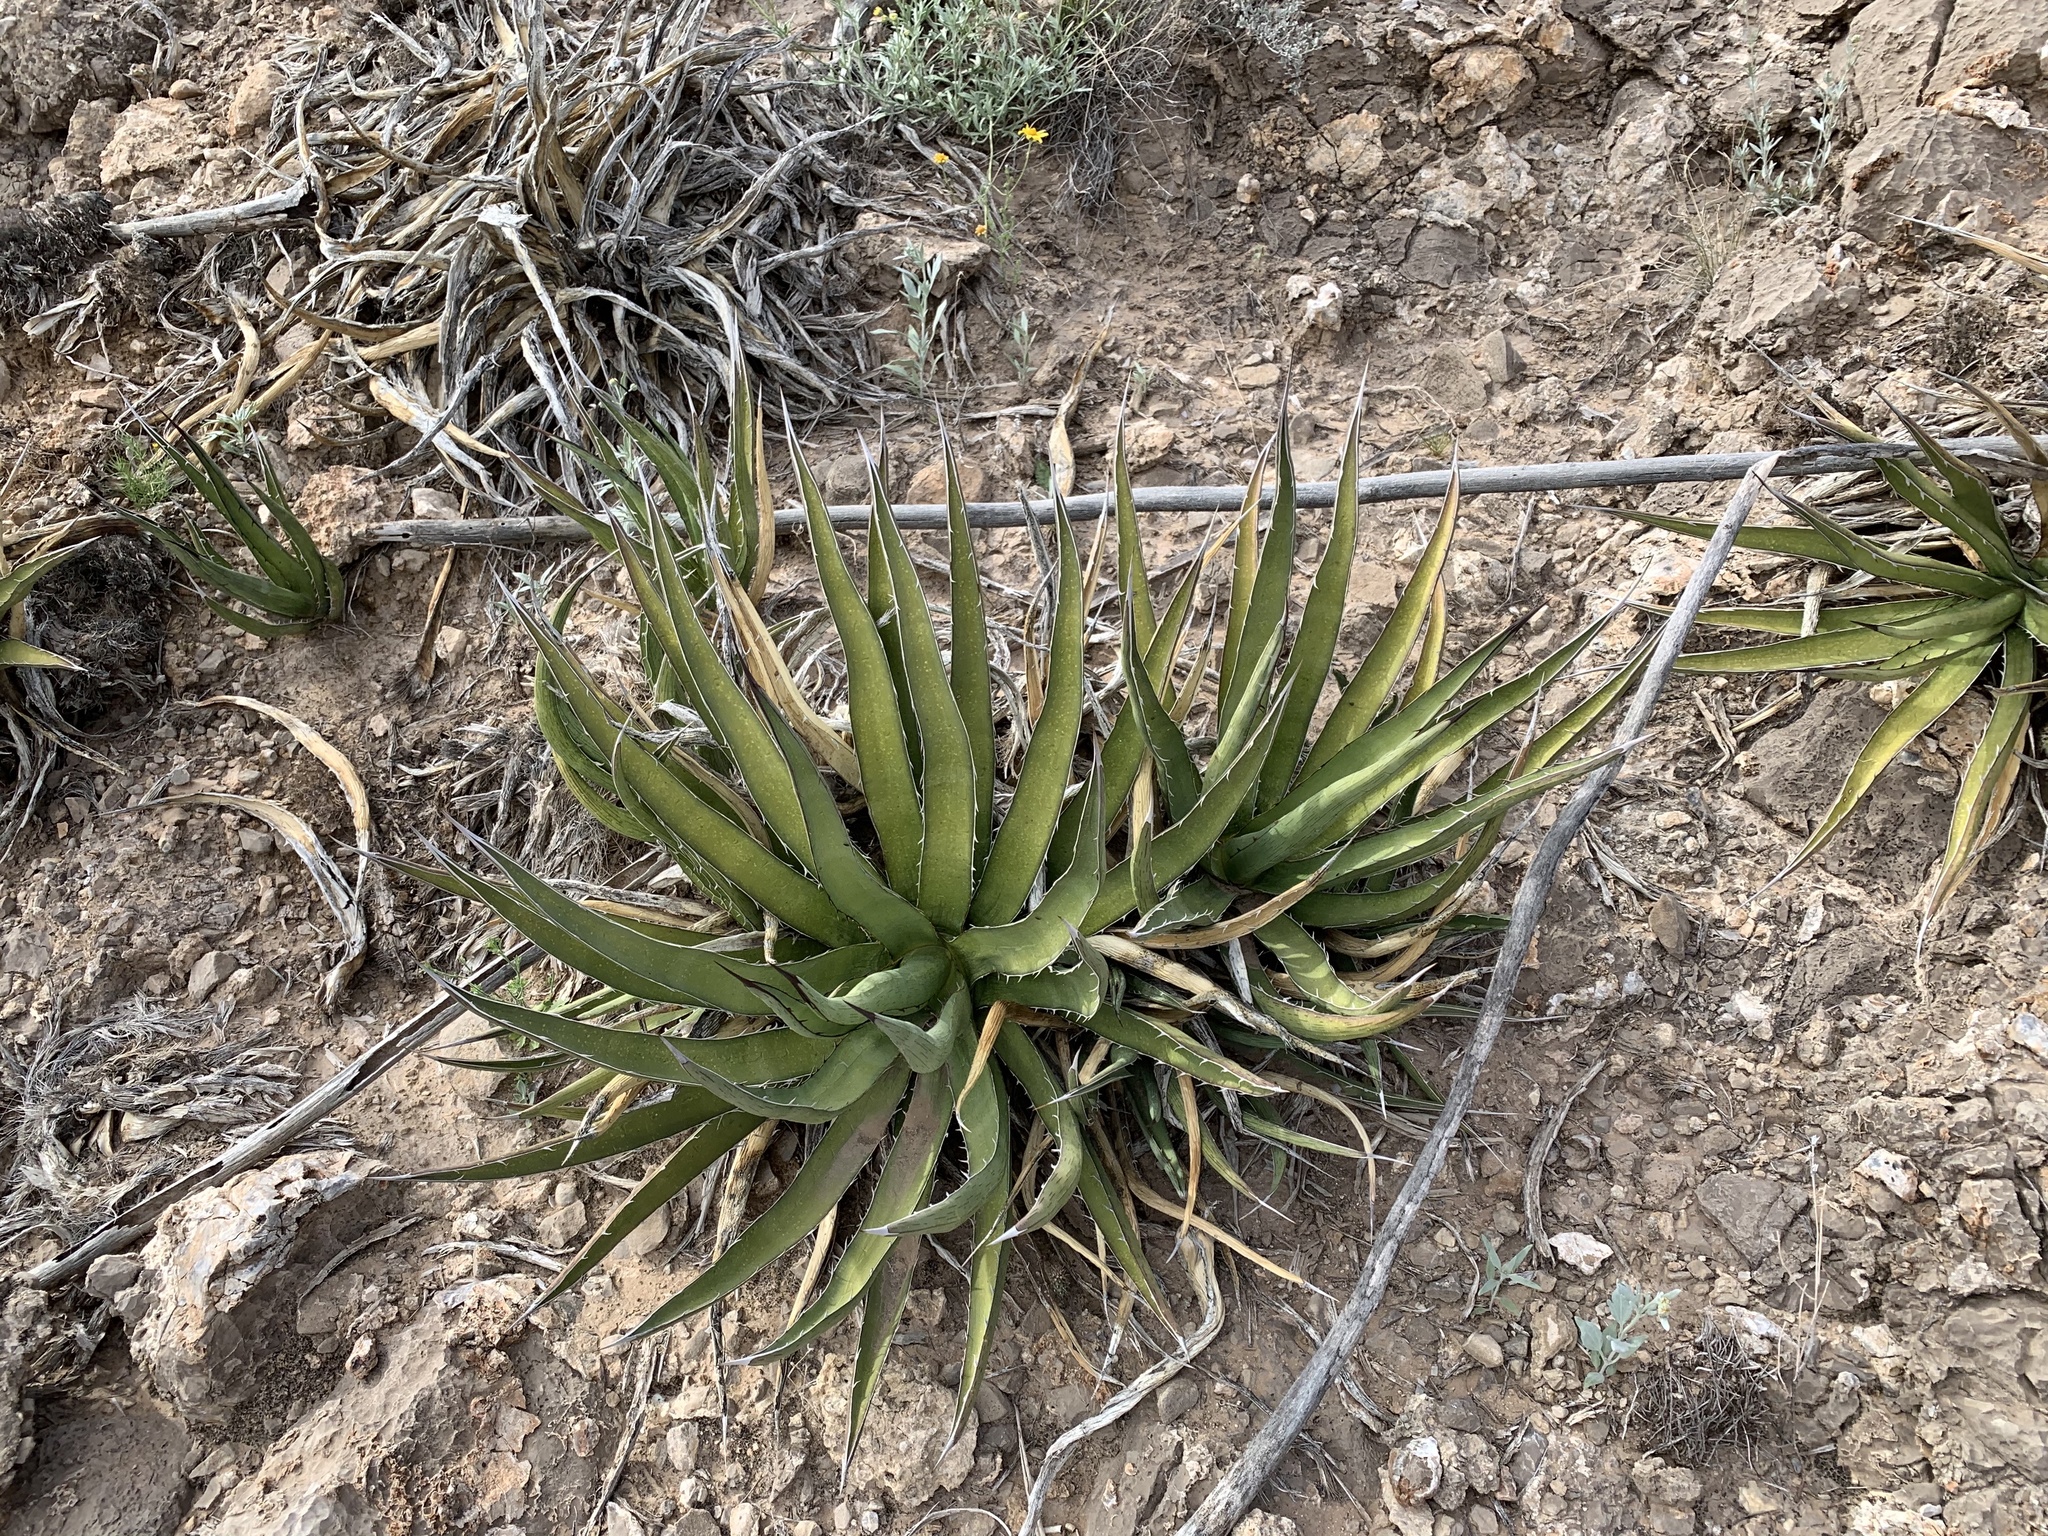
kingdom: Plantae
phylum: Tracheophyta
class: Liliopsida
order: Asparagales
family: Asparagaceae
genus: Agave
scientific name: Agave lechuguilla
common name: Lecheguilla agave
